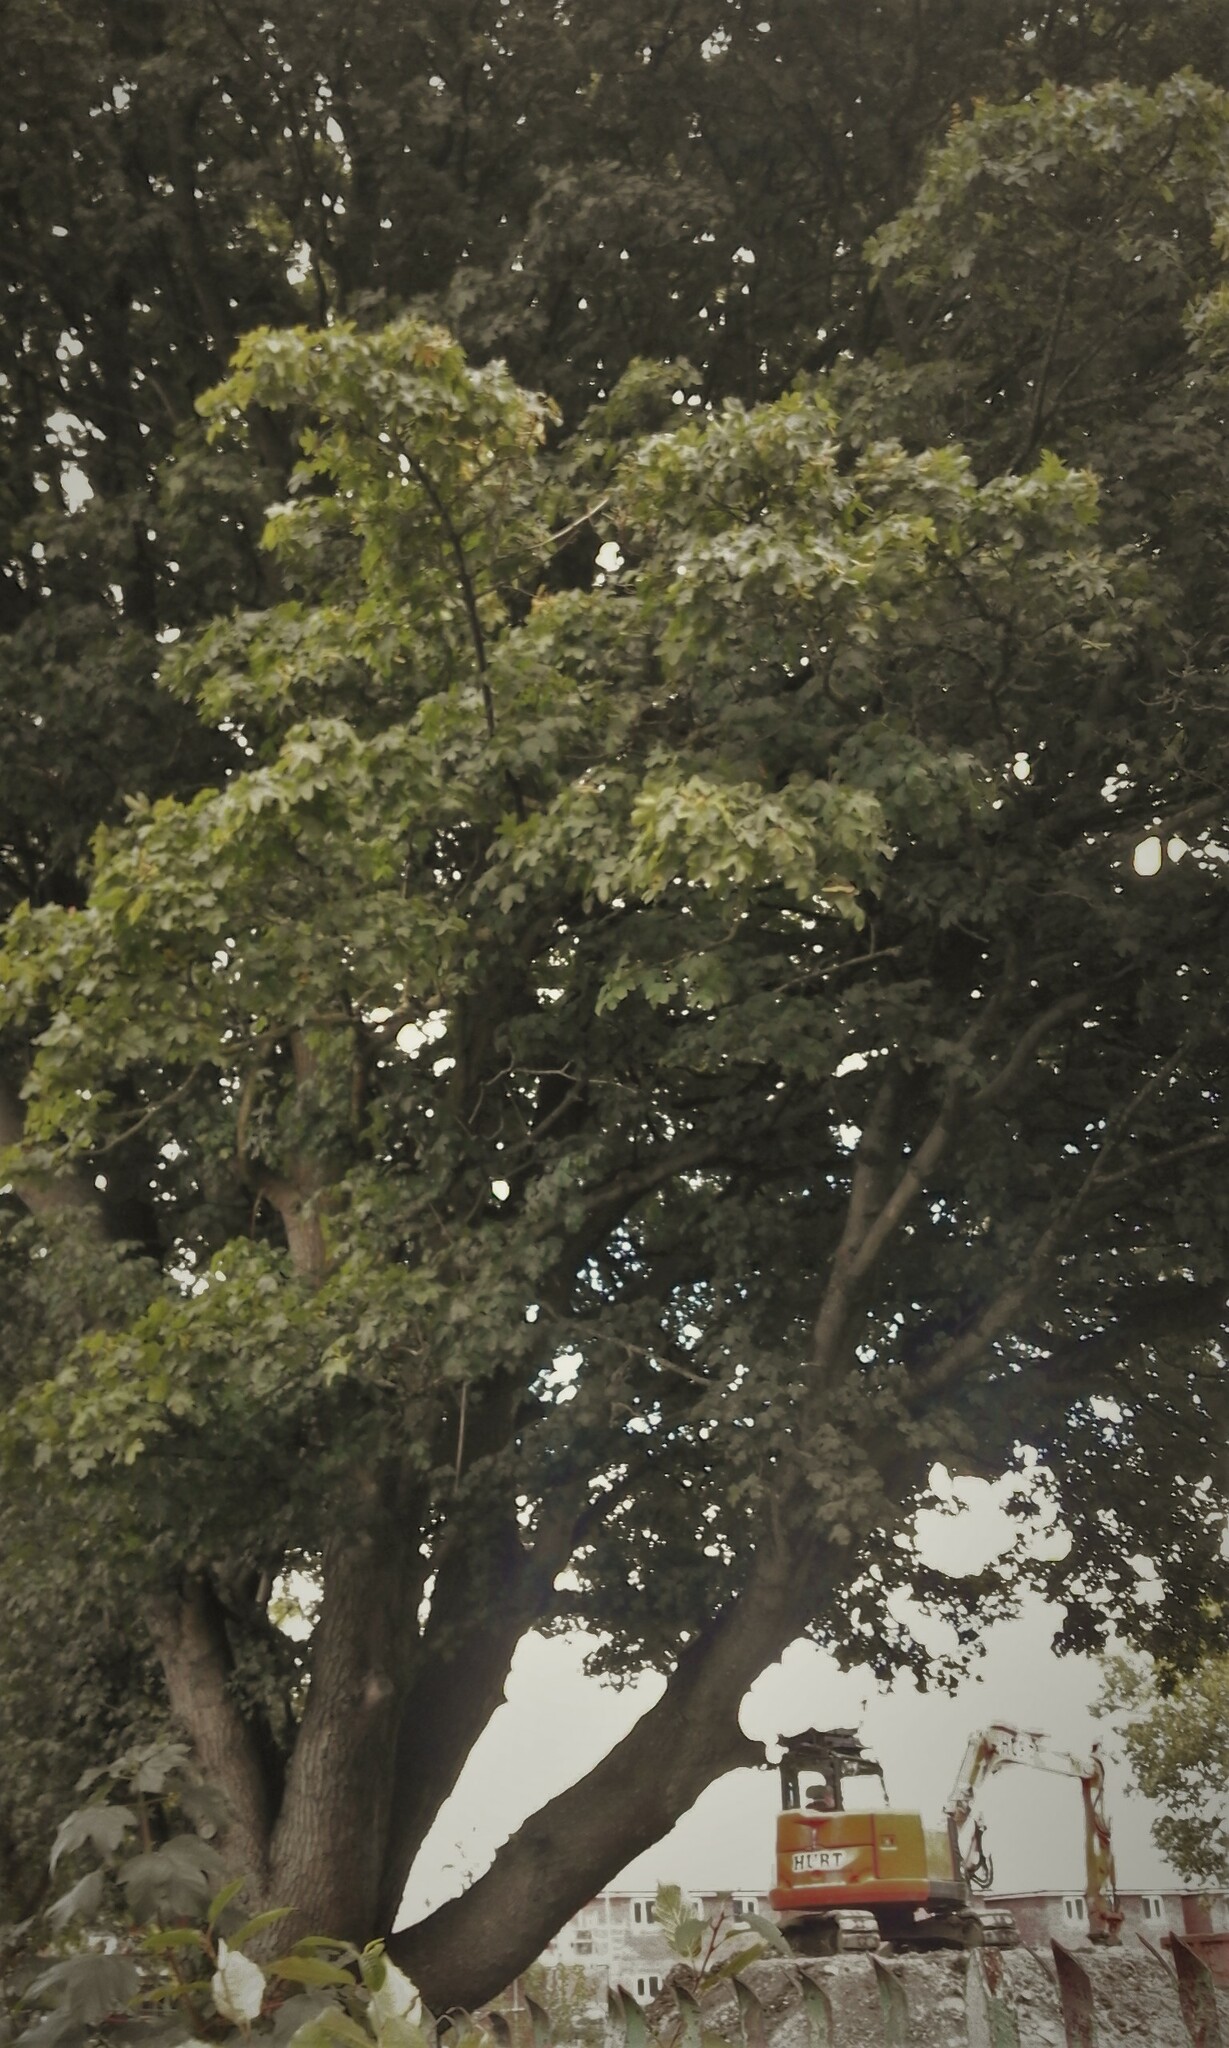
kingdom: Plantae
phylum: Tracheophyta
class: Magnoliopsida
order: Sapindales
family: Sapindaceae
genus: Acer
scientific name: Acer campestre
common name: Field maple
